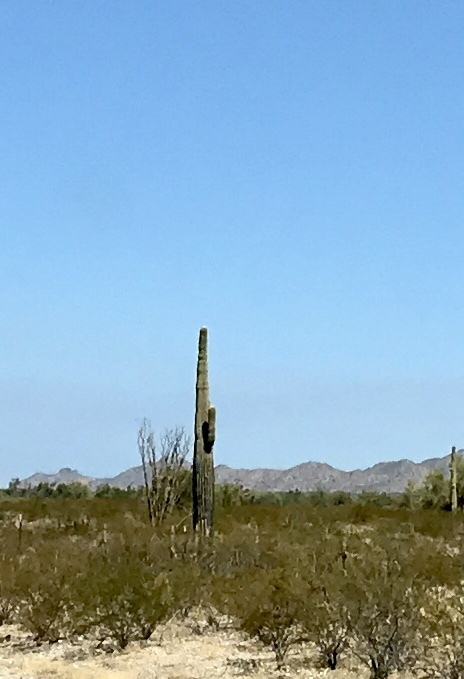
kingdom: Plantae
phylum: Tracheophyta
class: Magnoliopsida
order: Caryophyllales
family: Cactaceae
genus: Carnegiea
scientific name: Carnegiea gigantea
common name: Saguaro
